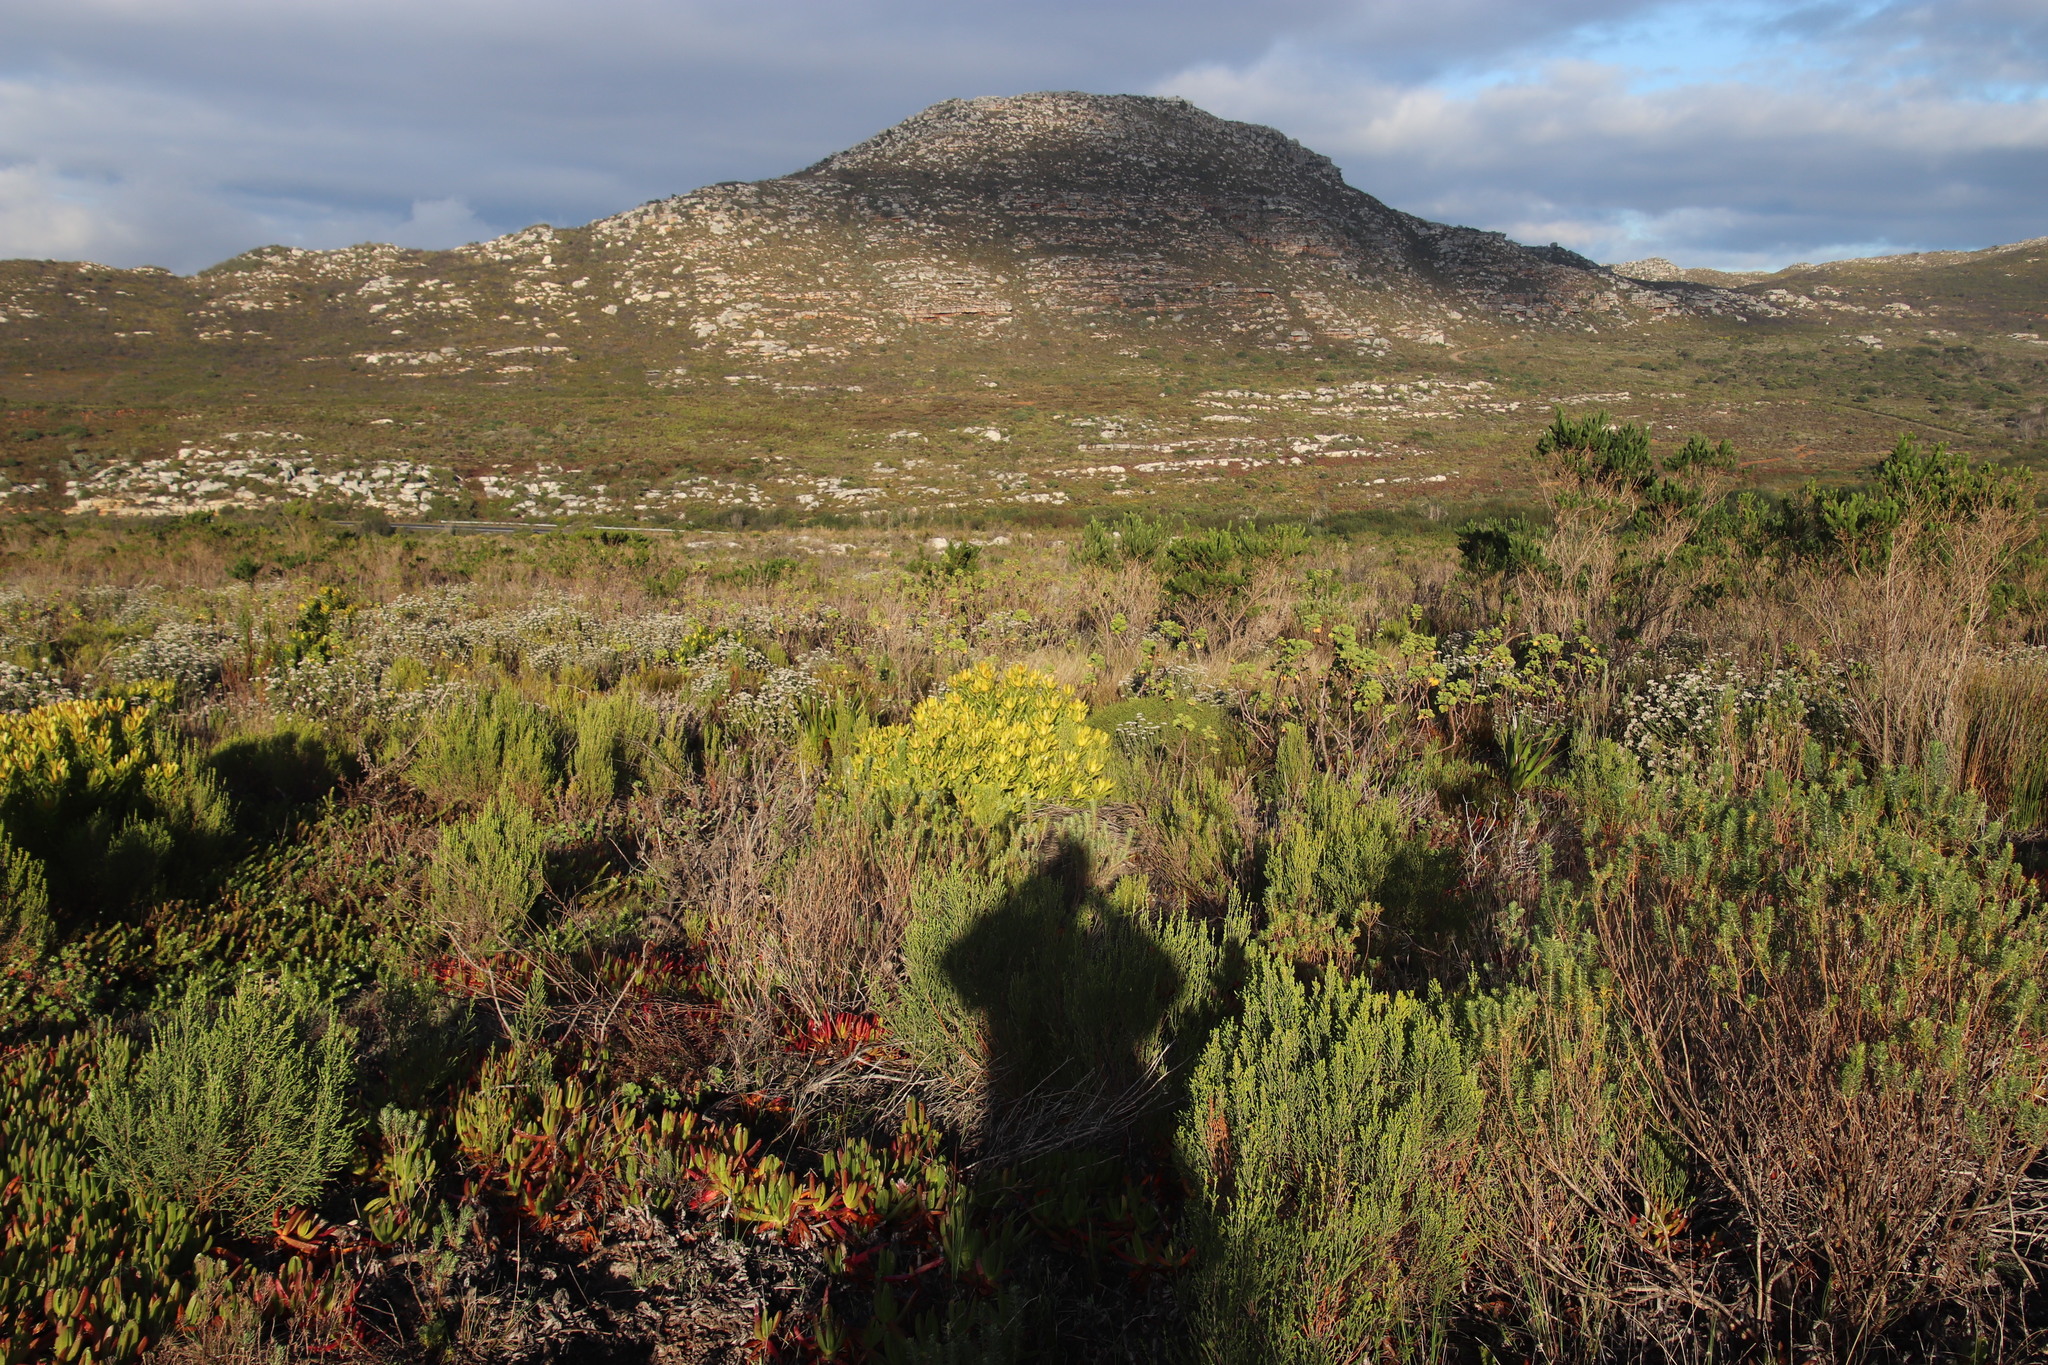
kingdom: Plantae
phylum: Tracheophyta
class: Magnoliopsida
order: Proteales
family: Proteaceae
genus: Leucadendron
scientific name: Leucadendron laureolum
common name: Golden sunshinebush
